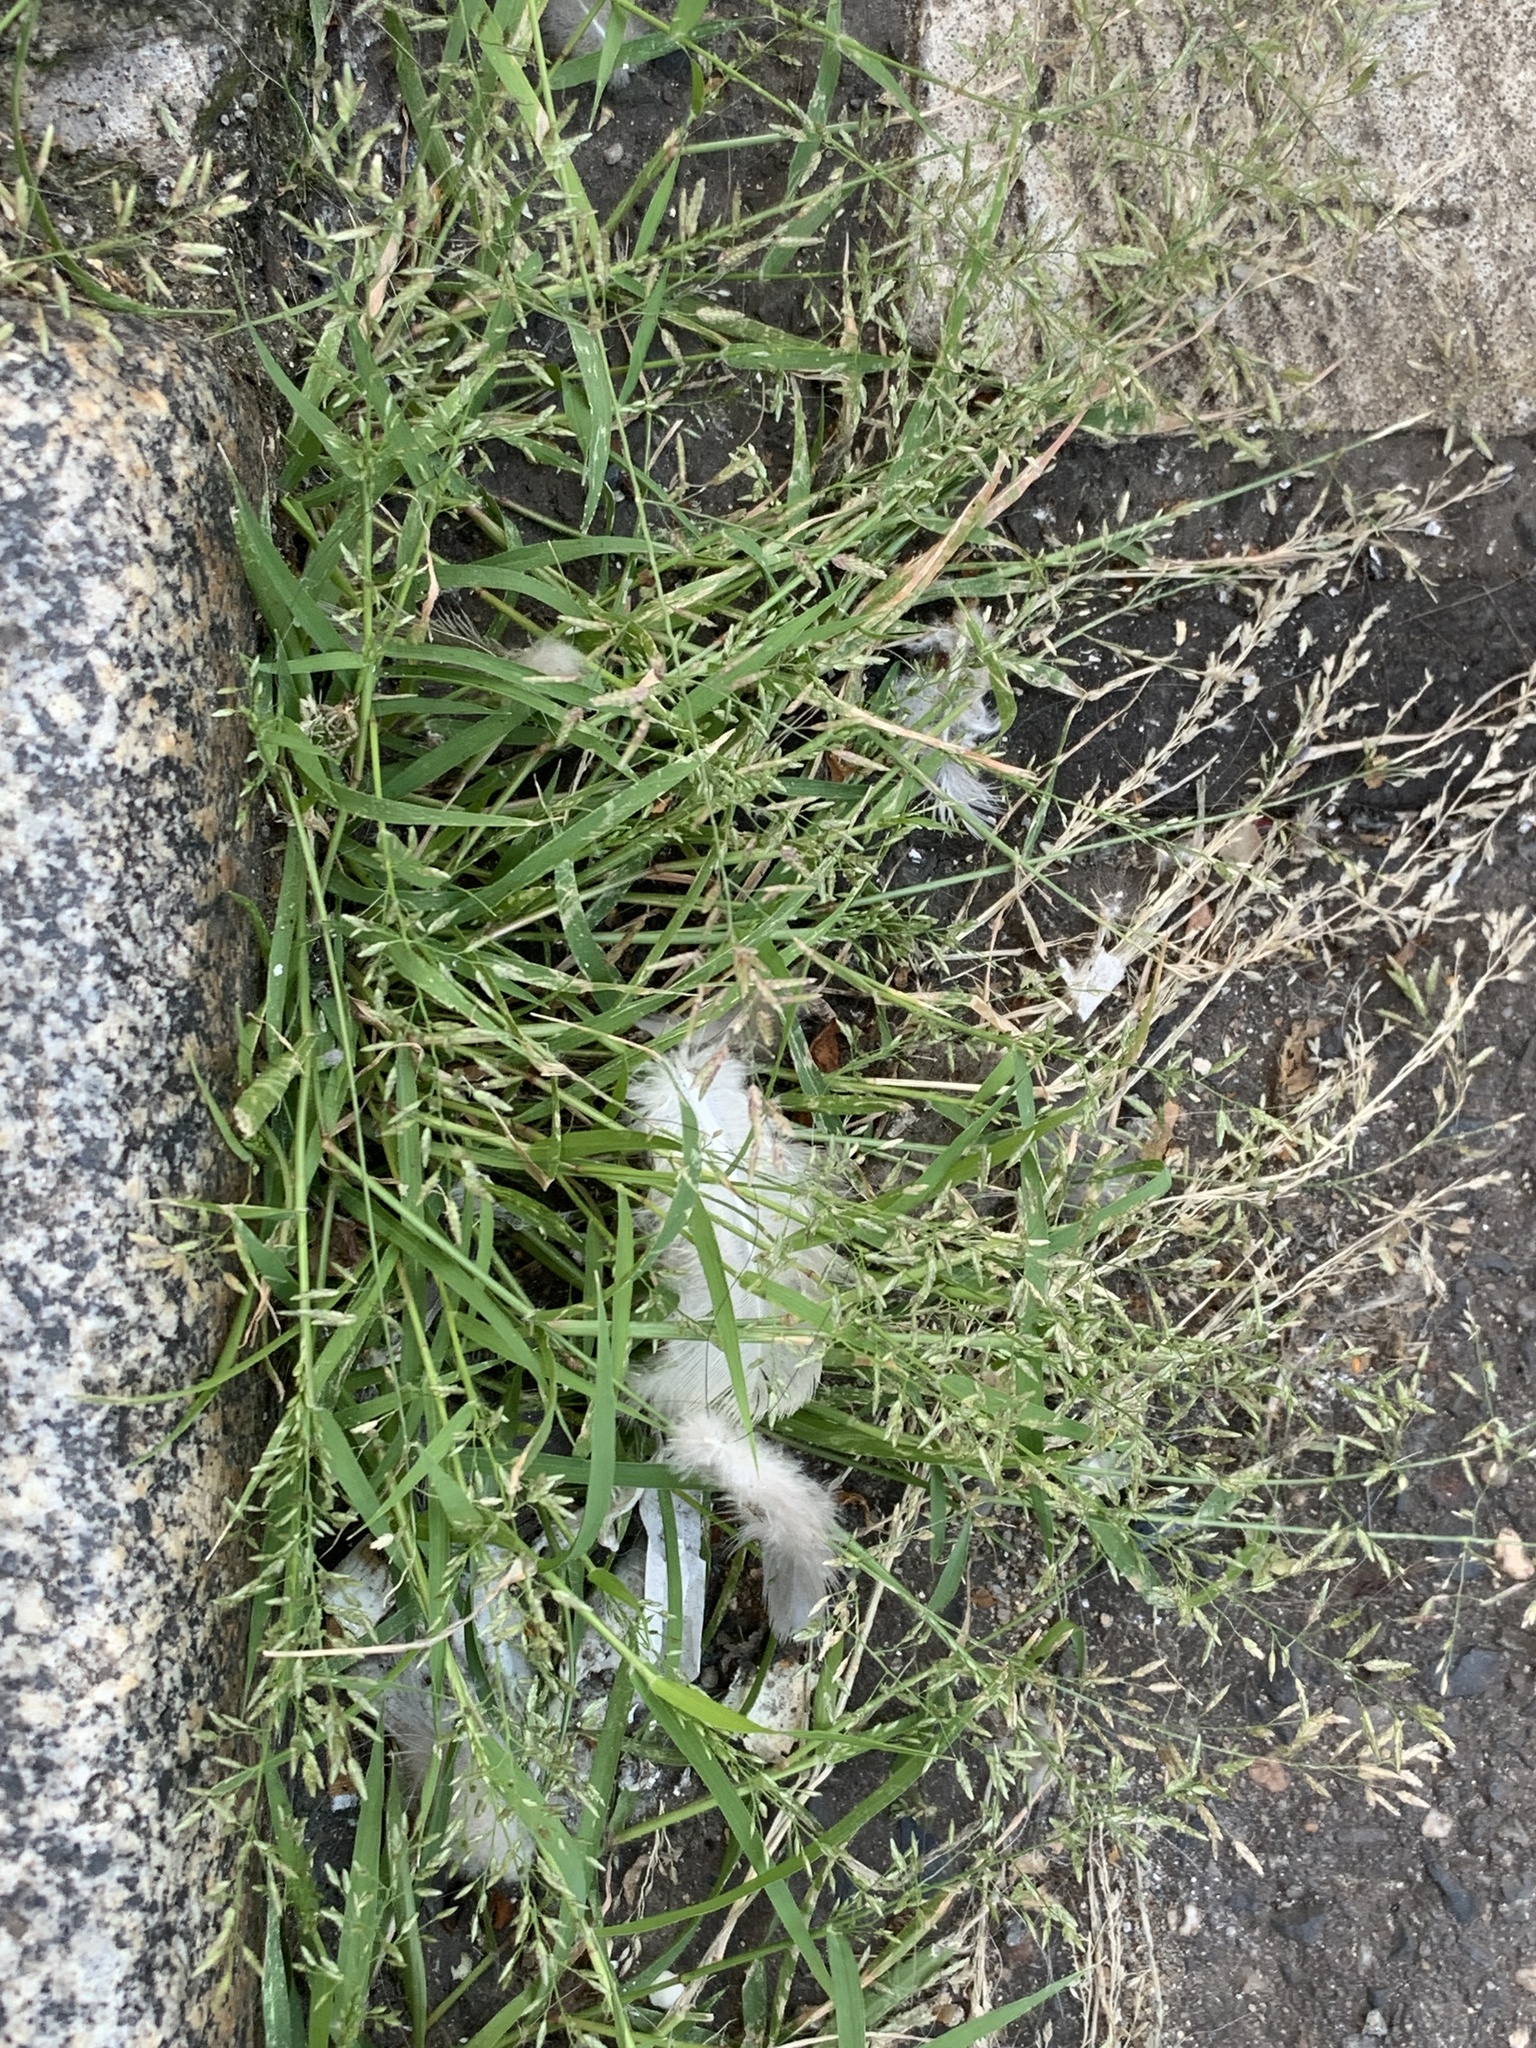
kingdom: Plantae
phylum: Tracheophyta
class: Liliopsida
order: Poales
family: Poaceae
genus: Eragrostis
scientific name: Eragrostis minor
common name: Small love-grass
